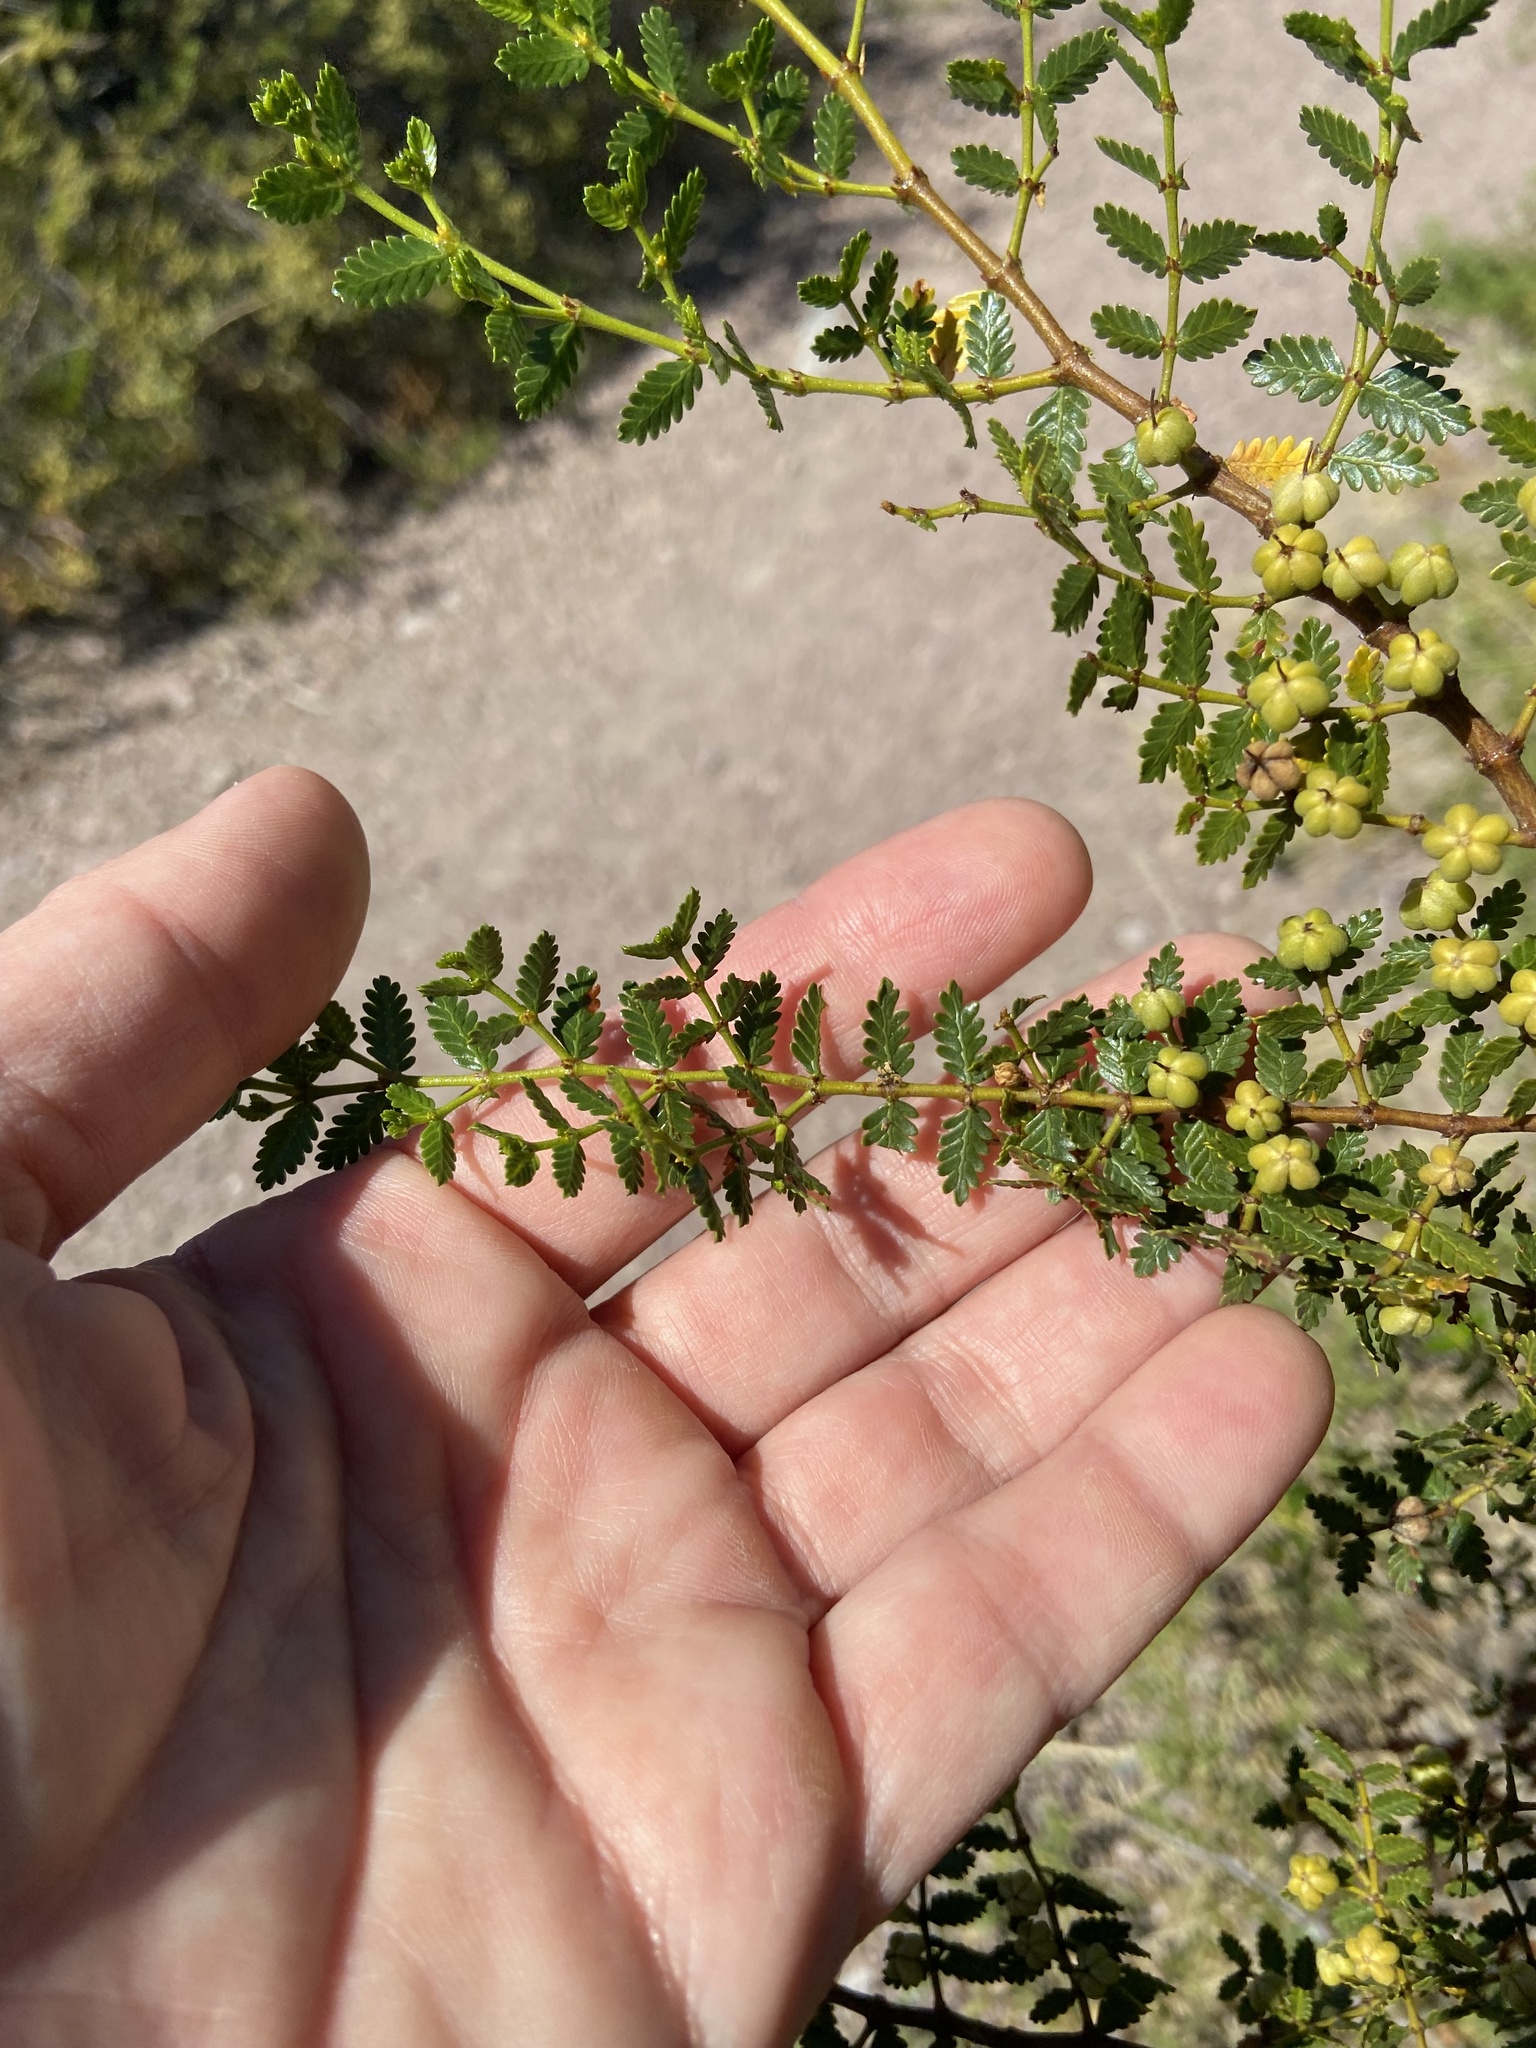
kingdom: Plantae
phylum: Tracheophyta
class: Magnoliopsida
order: Zygophyllales
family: Zygophyllaceae
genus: Larrea
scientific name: Larrea nitida
